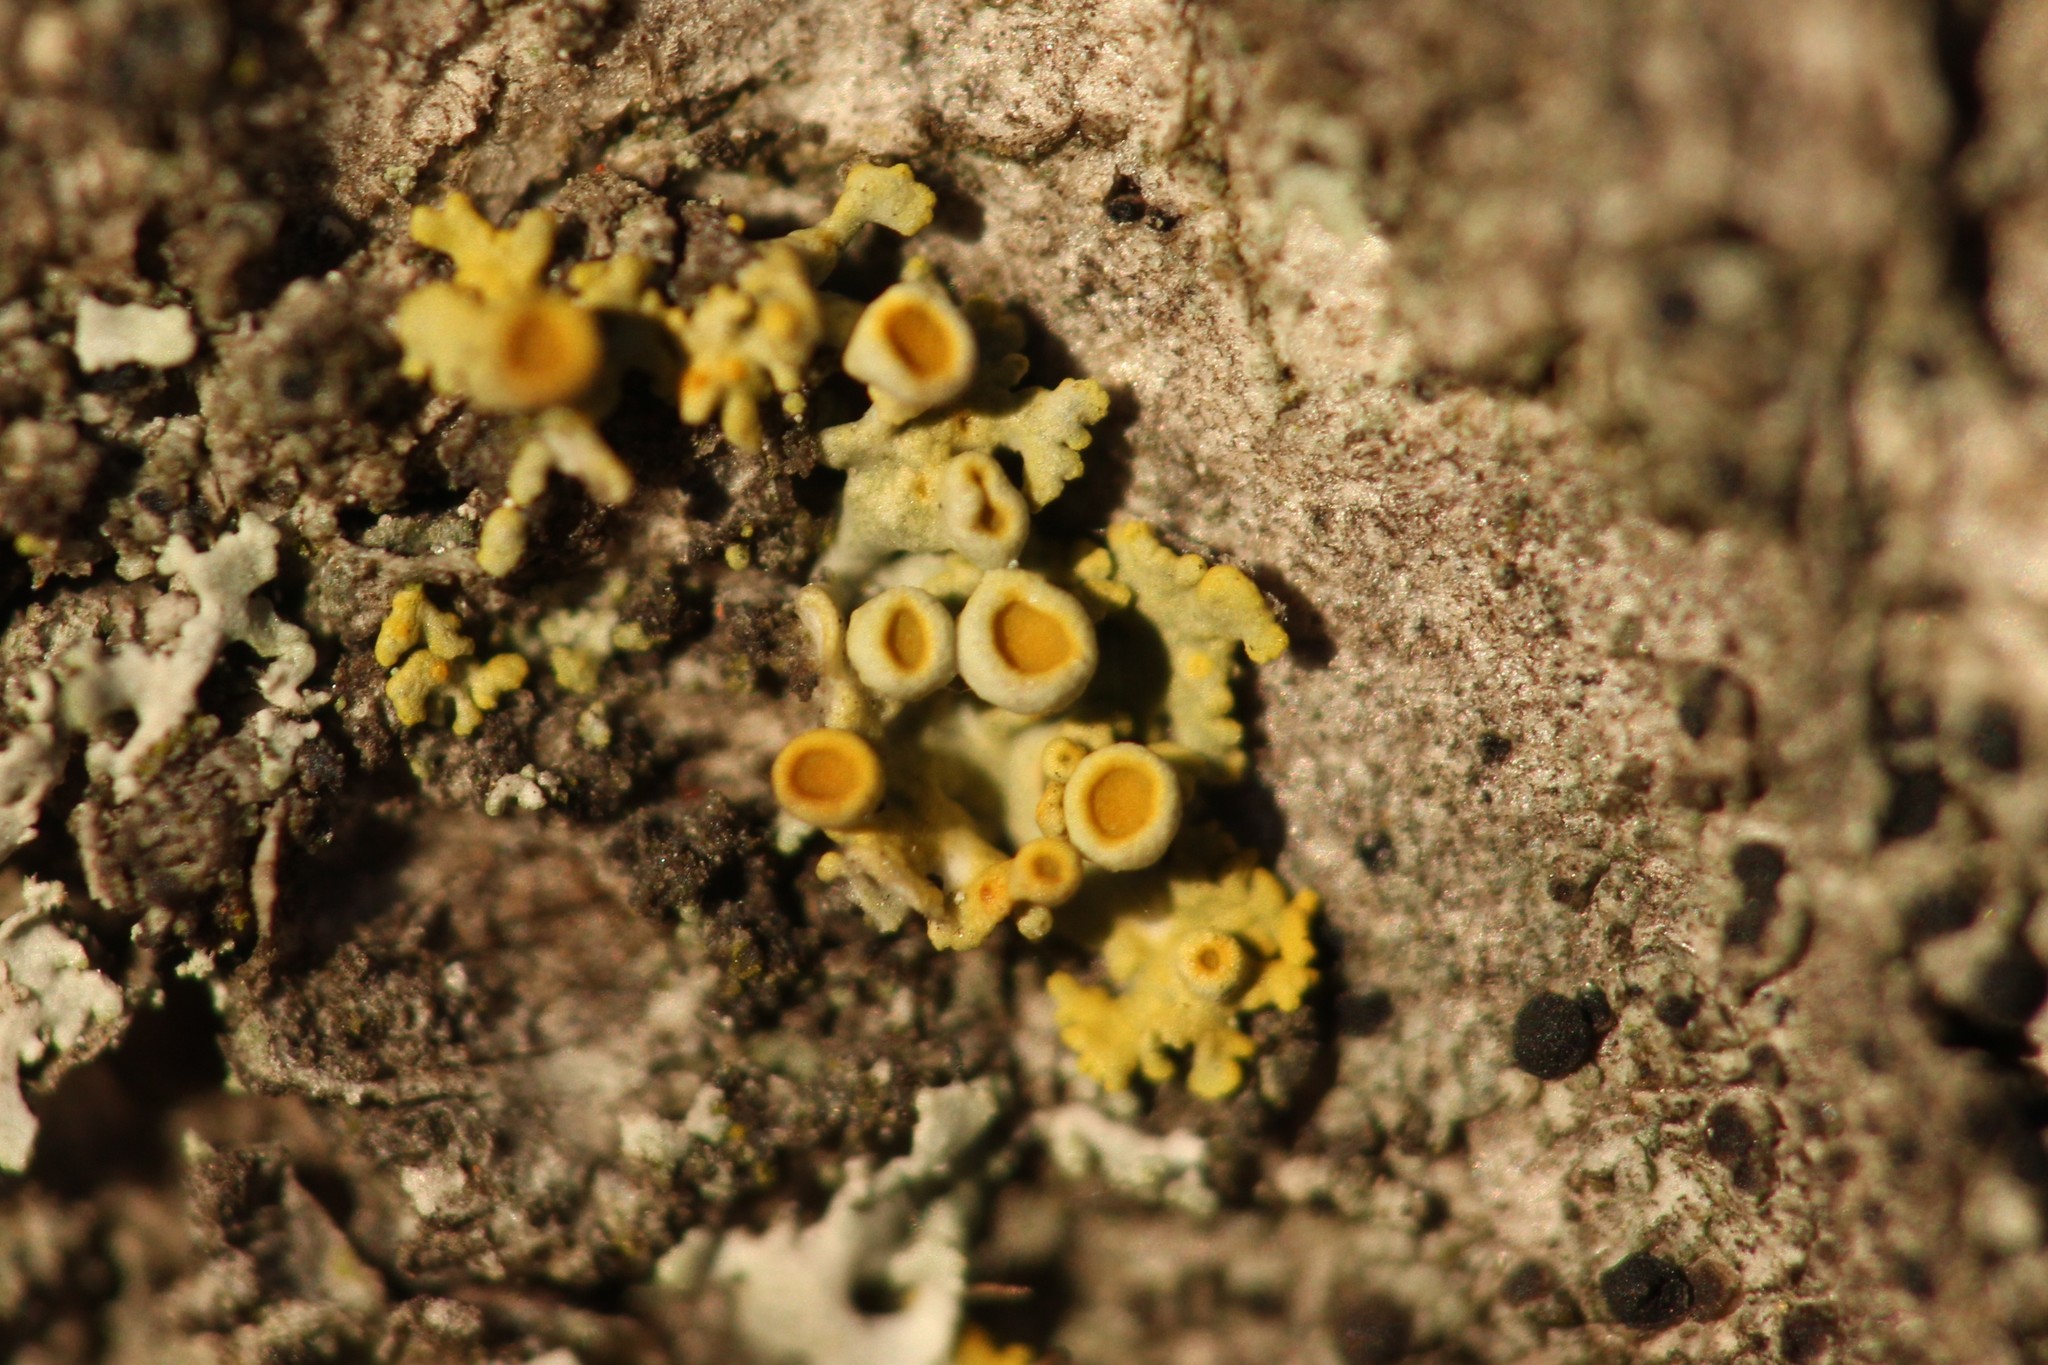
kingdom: Fungi
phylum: Ascomycota
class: Lecanoromycetes
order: Teloschistales
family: Teloschistaceae
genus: Polycauliona
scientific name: Polycauliona polycarpa
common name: Pin-cushion sunburst lichen
